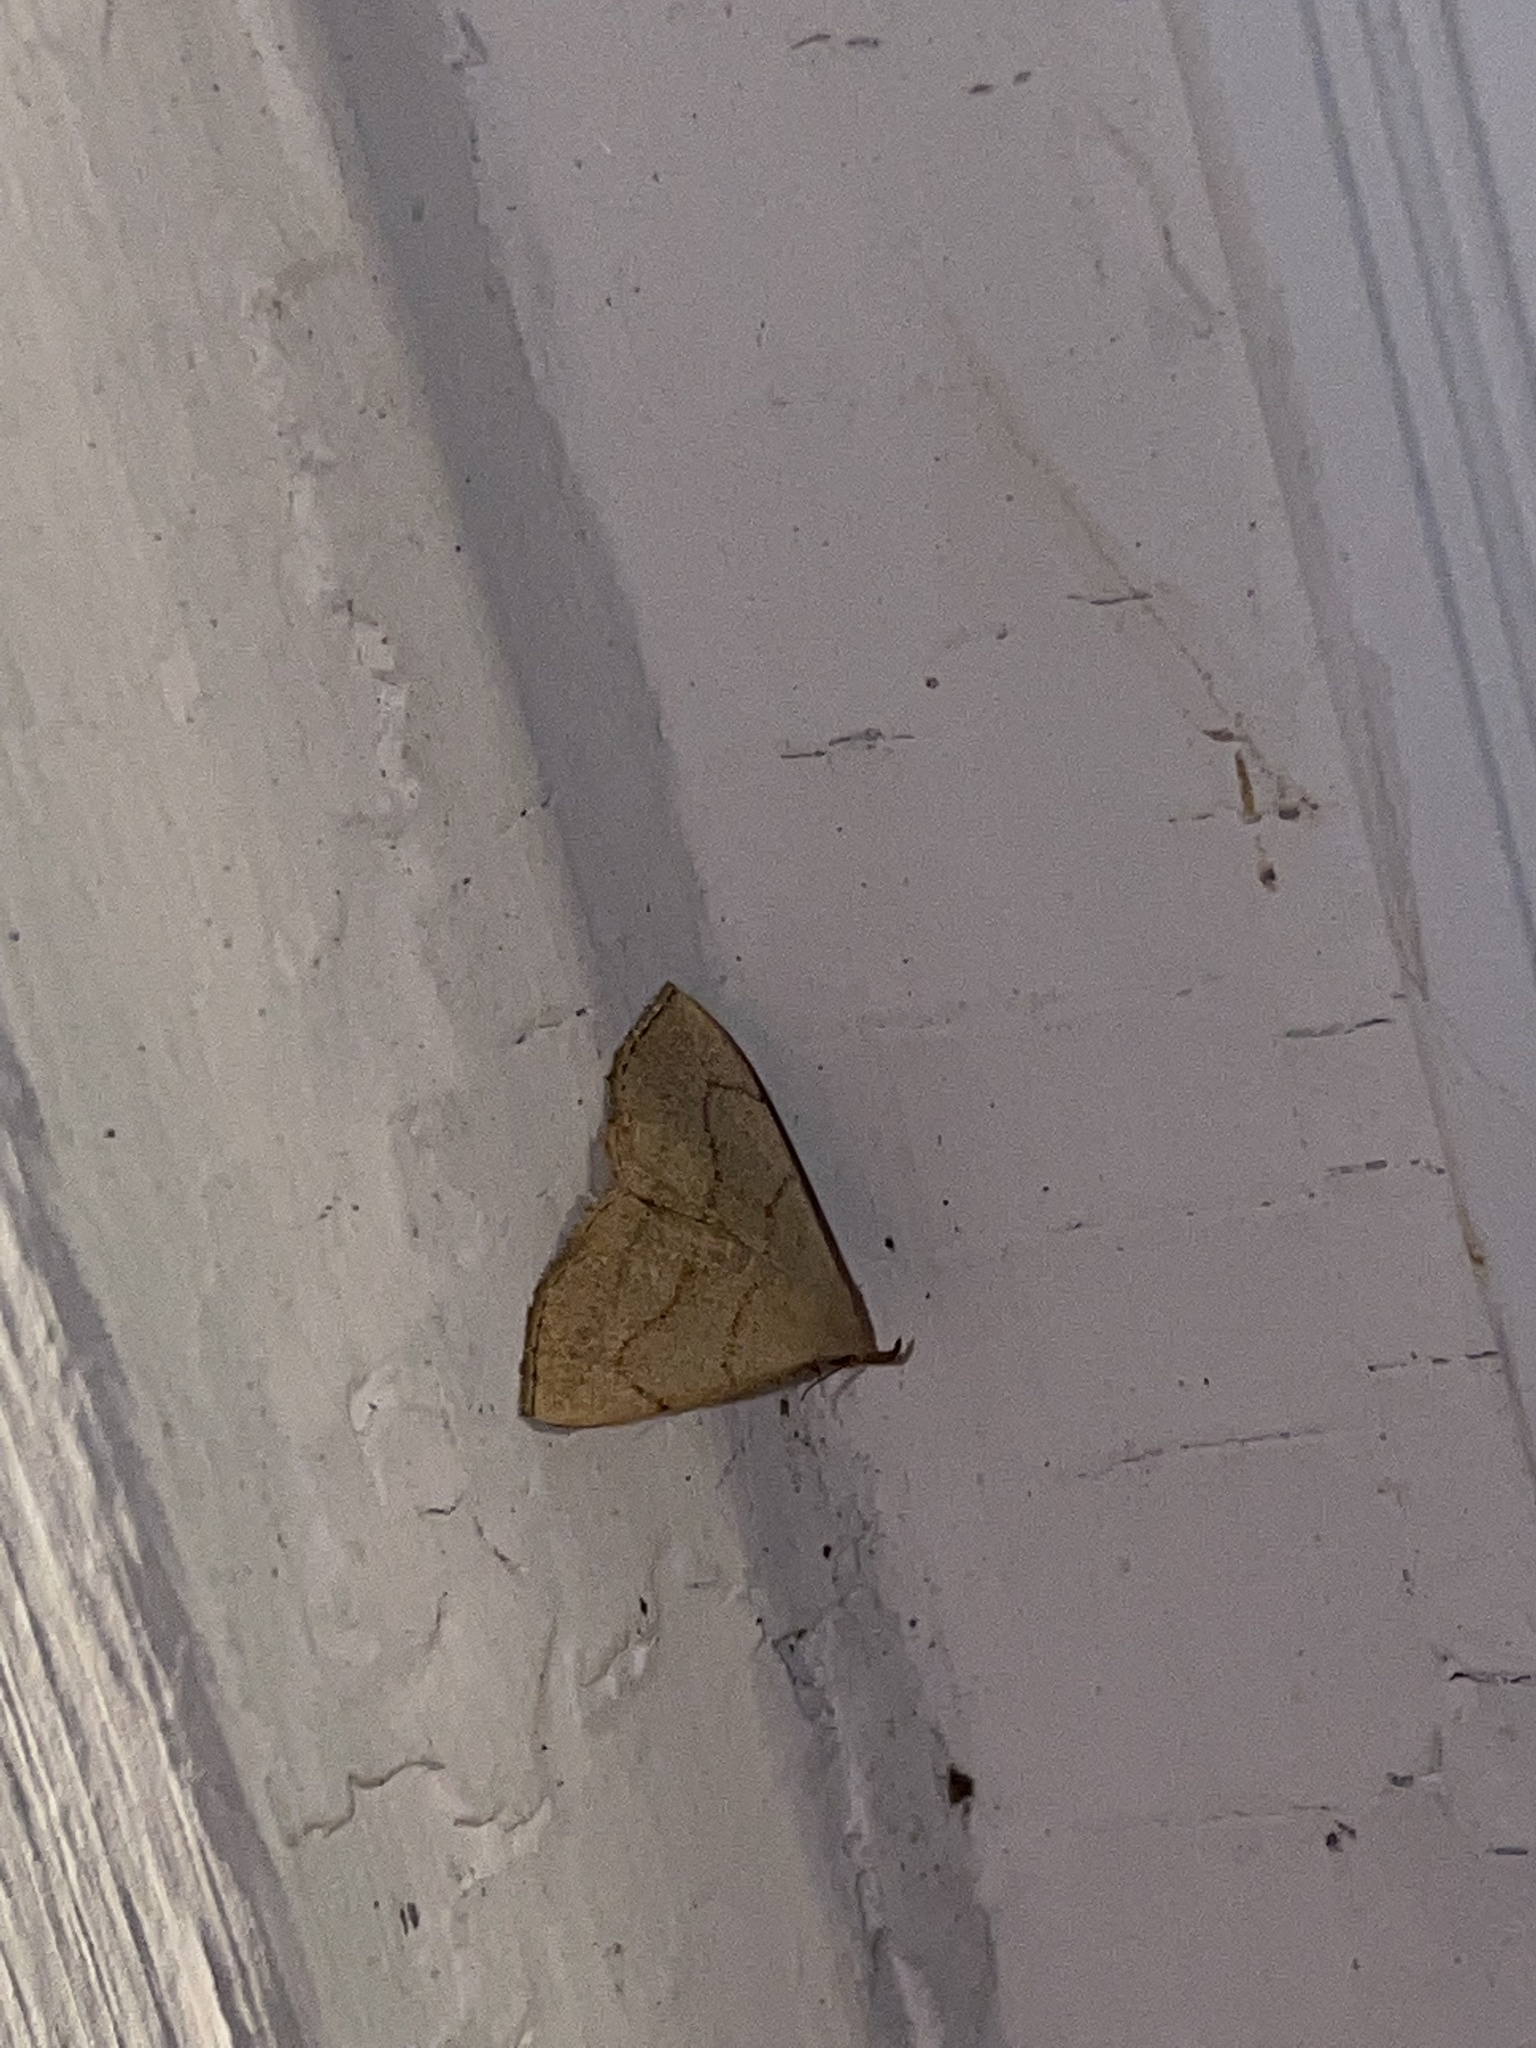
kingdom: Animalia
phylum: Arthropoda
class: Insecta
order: Lepidoptera
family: Erebidae
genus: Macrochilo
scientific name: Macrochilo litophora
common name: Brown-lined owlet
